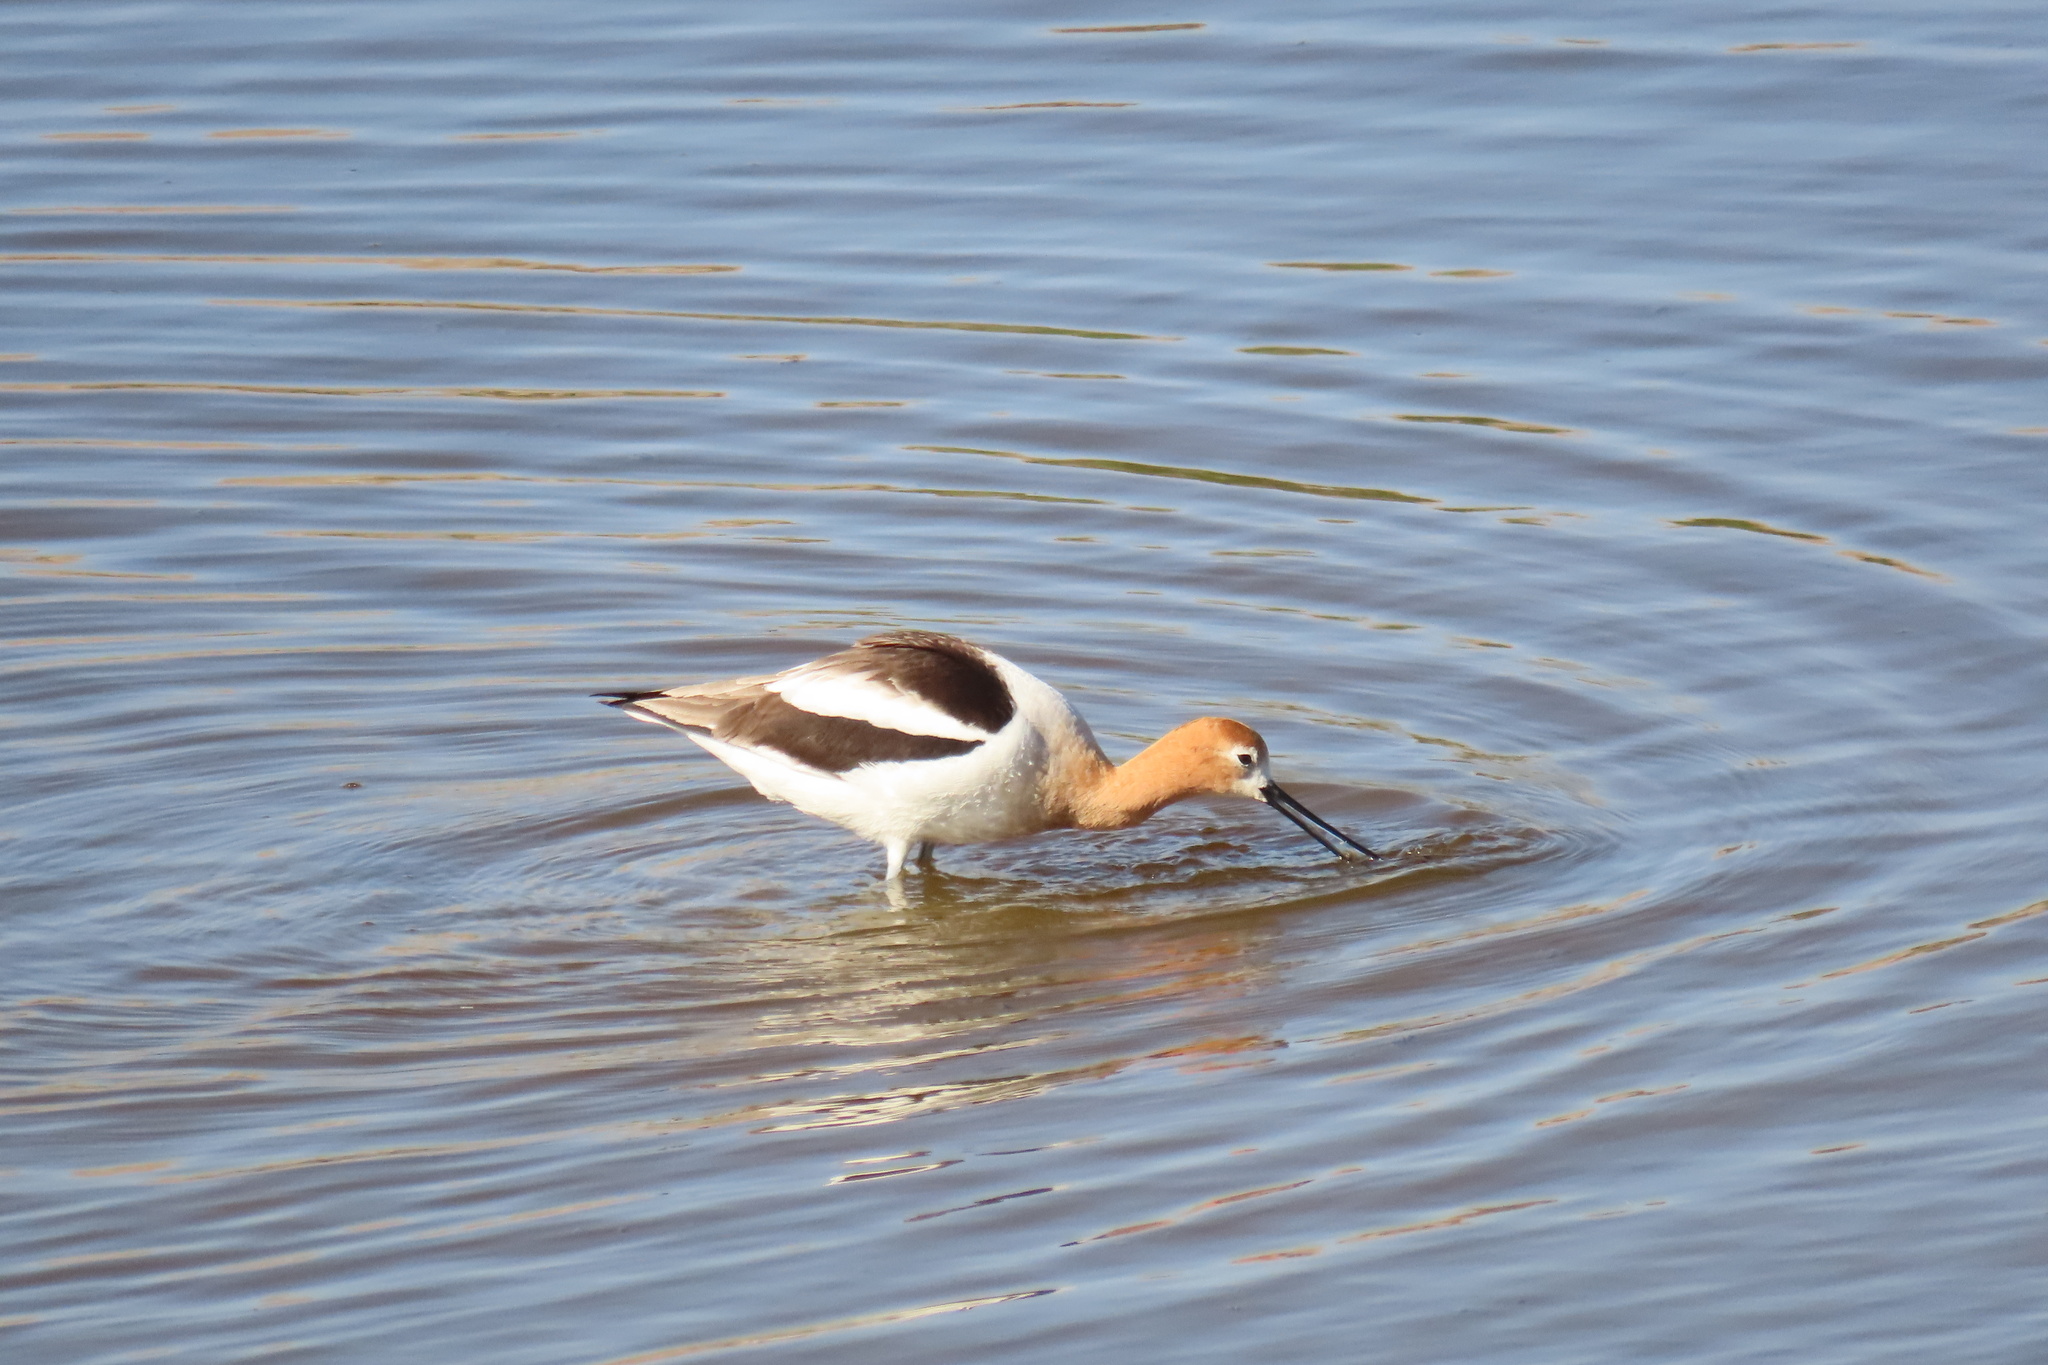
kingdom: Animalia
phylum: Chordata
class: Aves
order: Charadriiformes
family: Recurvirostridae
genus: Recurvirostra
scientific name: Recurvirostra americana
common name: American avocet
